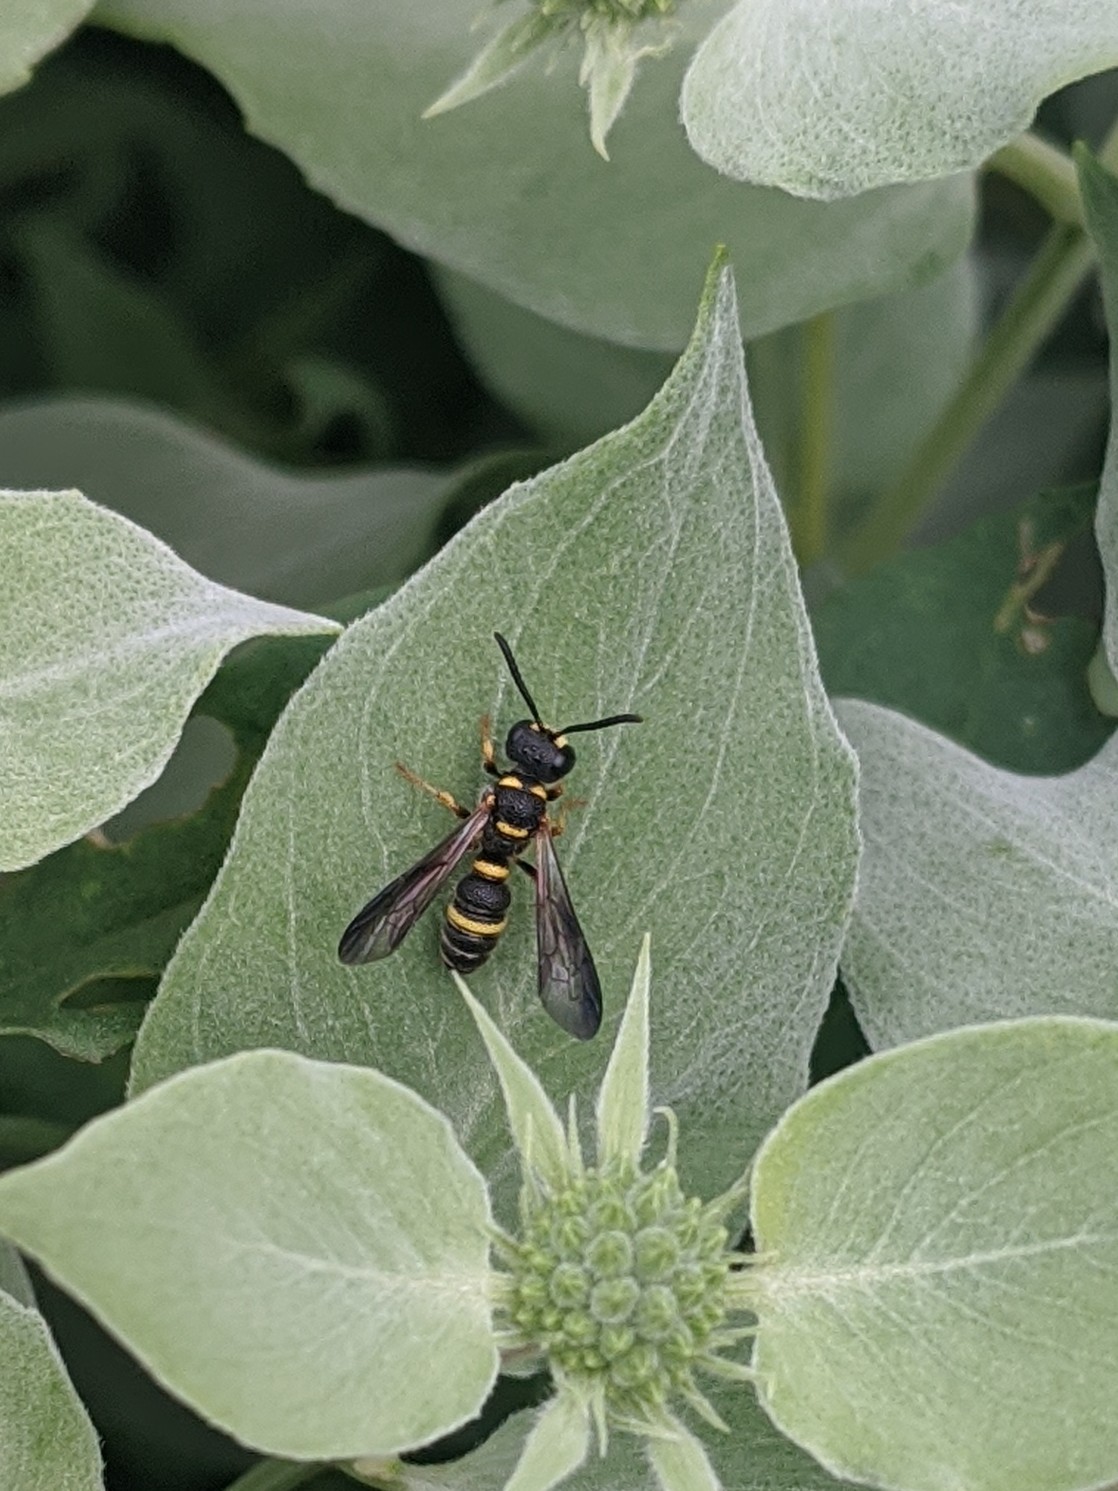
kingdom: Animalia
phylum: Arthropoda
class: Insecta
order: Hymenoptera
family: Crabronidae
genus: Cerceris
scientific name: Cerceris insolita
